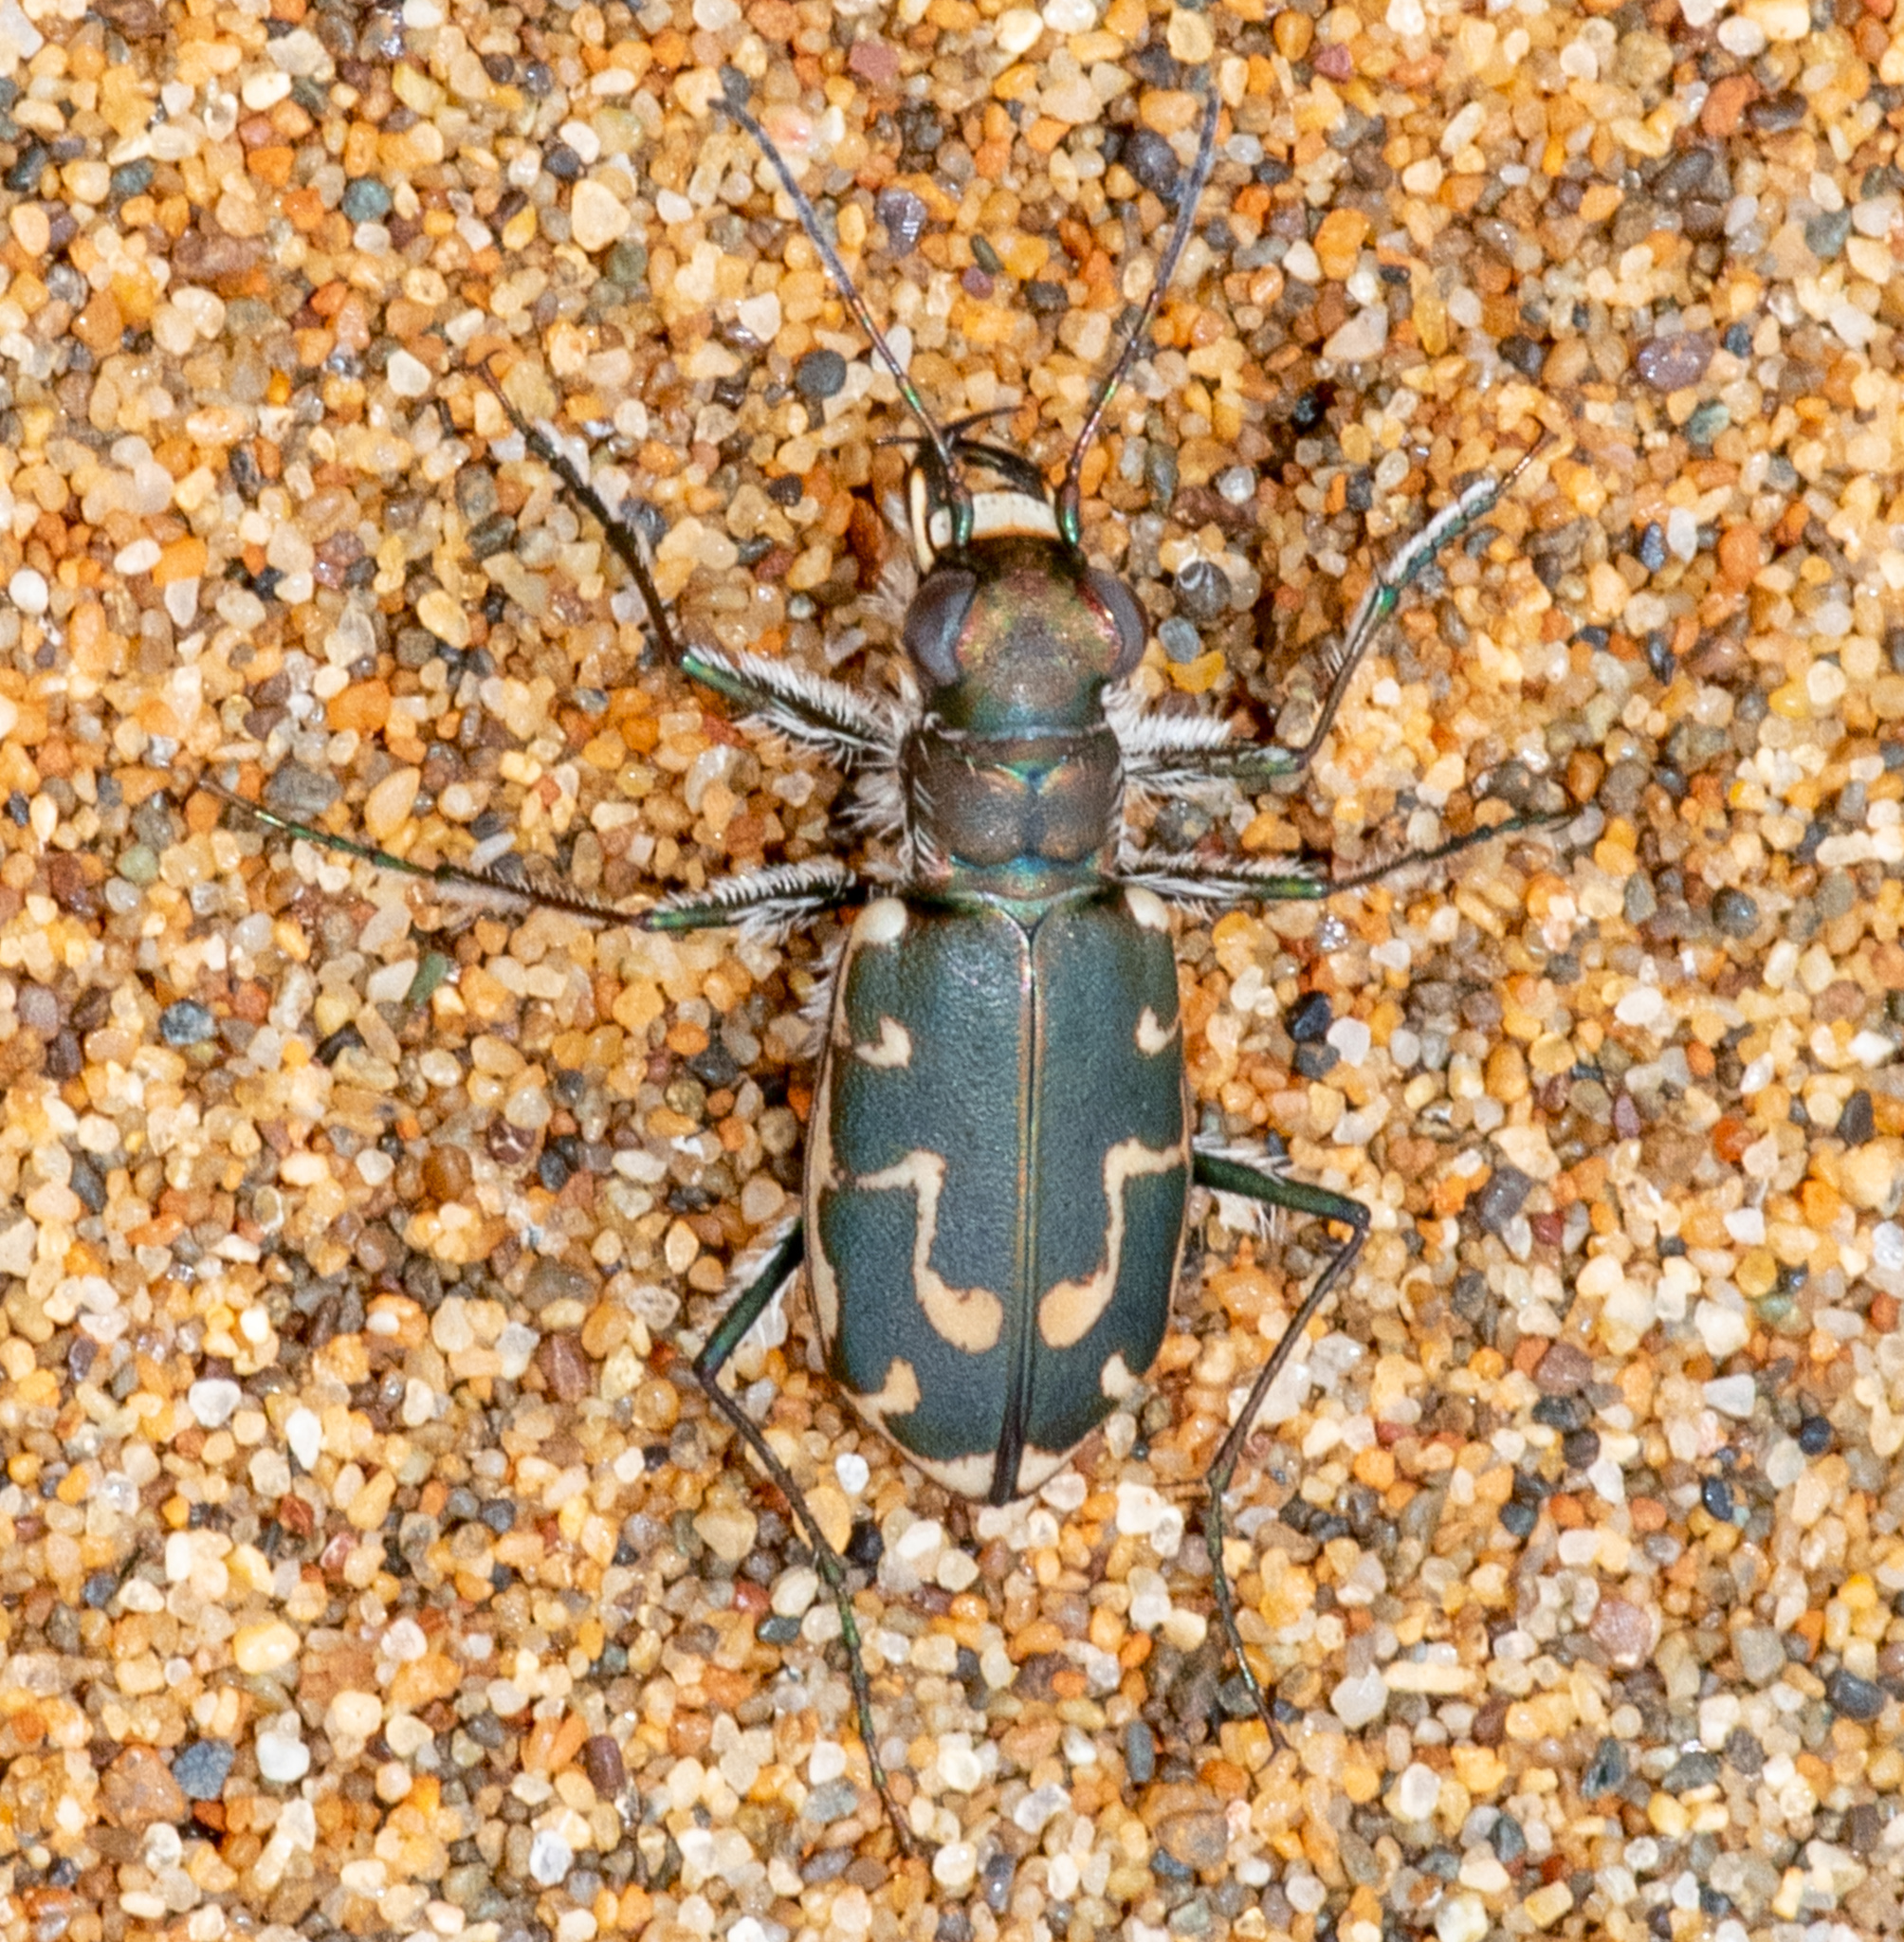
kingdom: Animalia
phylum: Arthropoda
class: Insecta
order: Coleoptera
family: Carabidae
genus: Cicindela
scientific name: Cicindela hirticollis
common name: Hairy-necked tiger beetle
